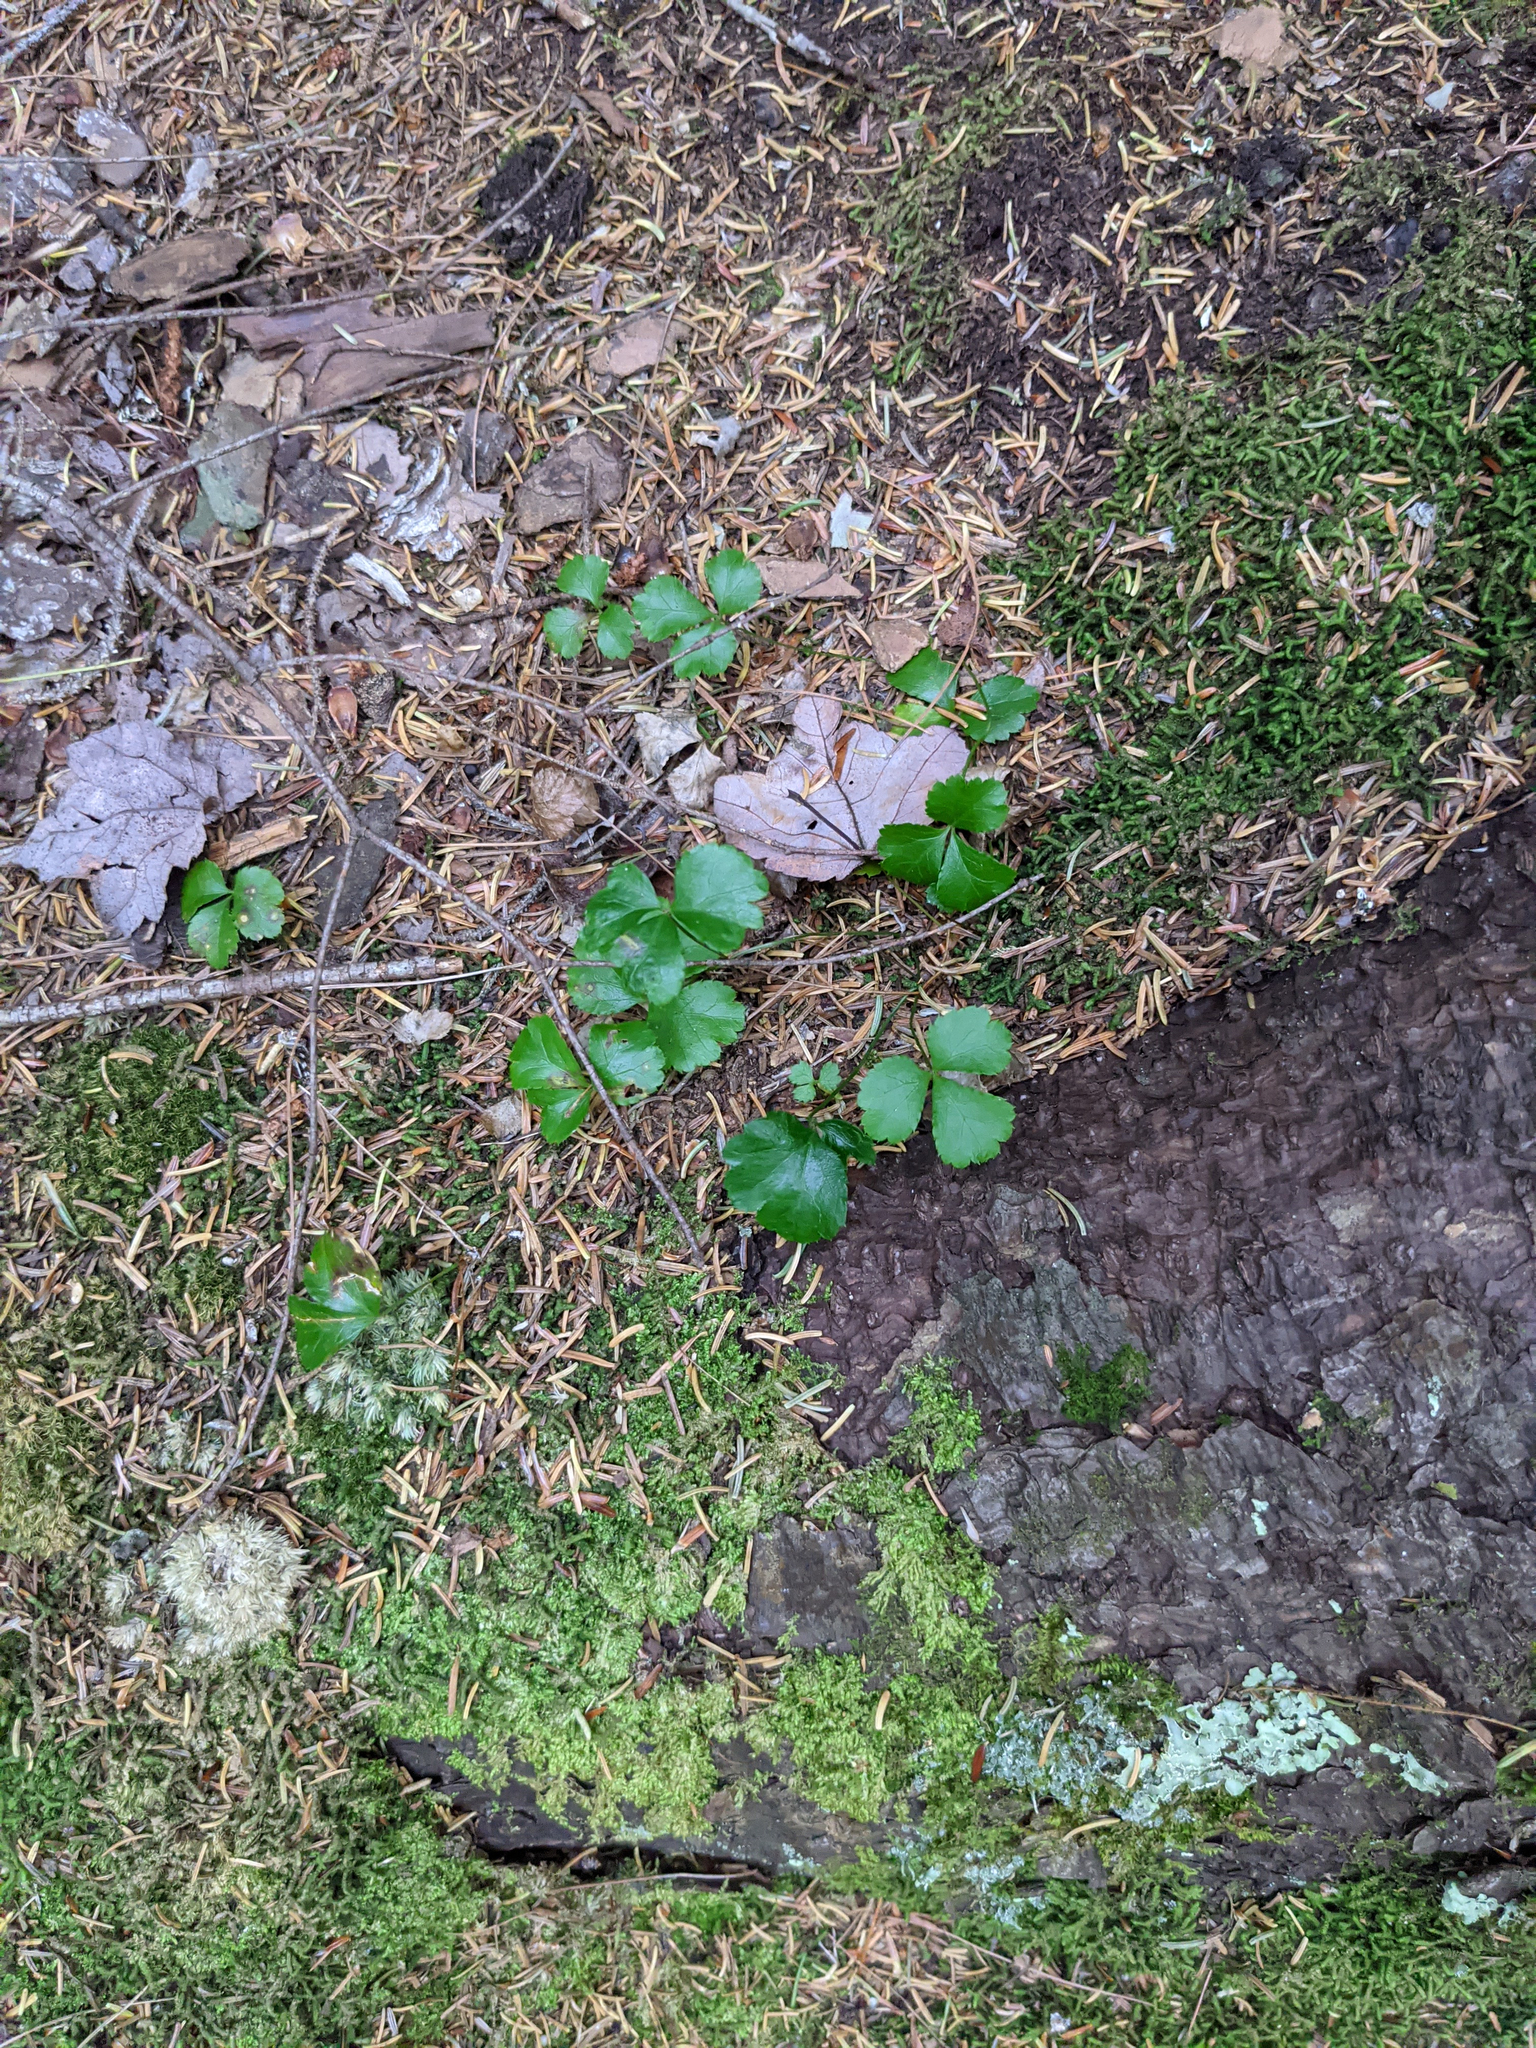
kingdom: Plantae
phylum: Tracheophyta
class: Magnoliopsida
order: Ranunculales
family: Ranunculaceae
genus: Coptis
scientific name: Coptis trifolia
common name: Canker-root
